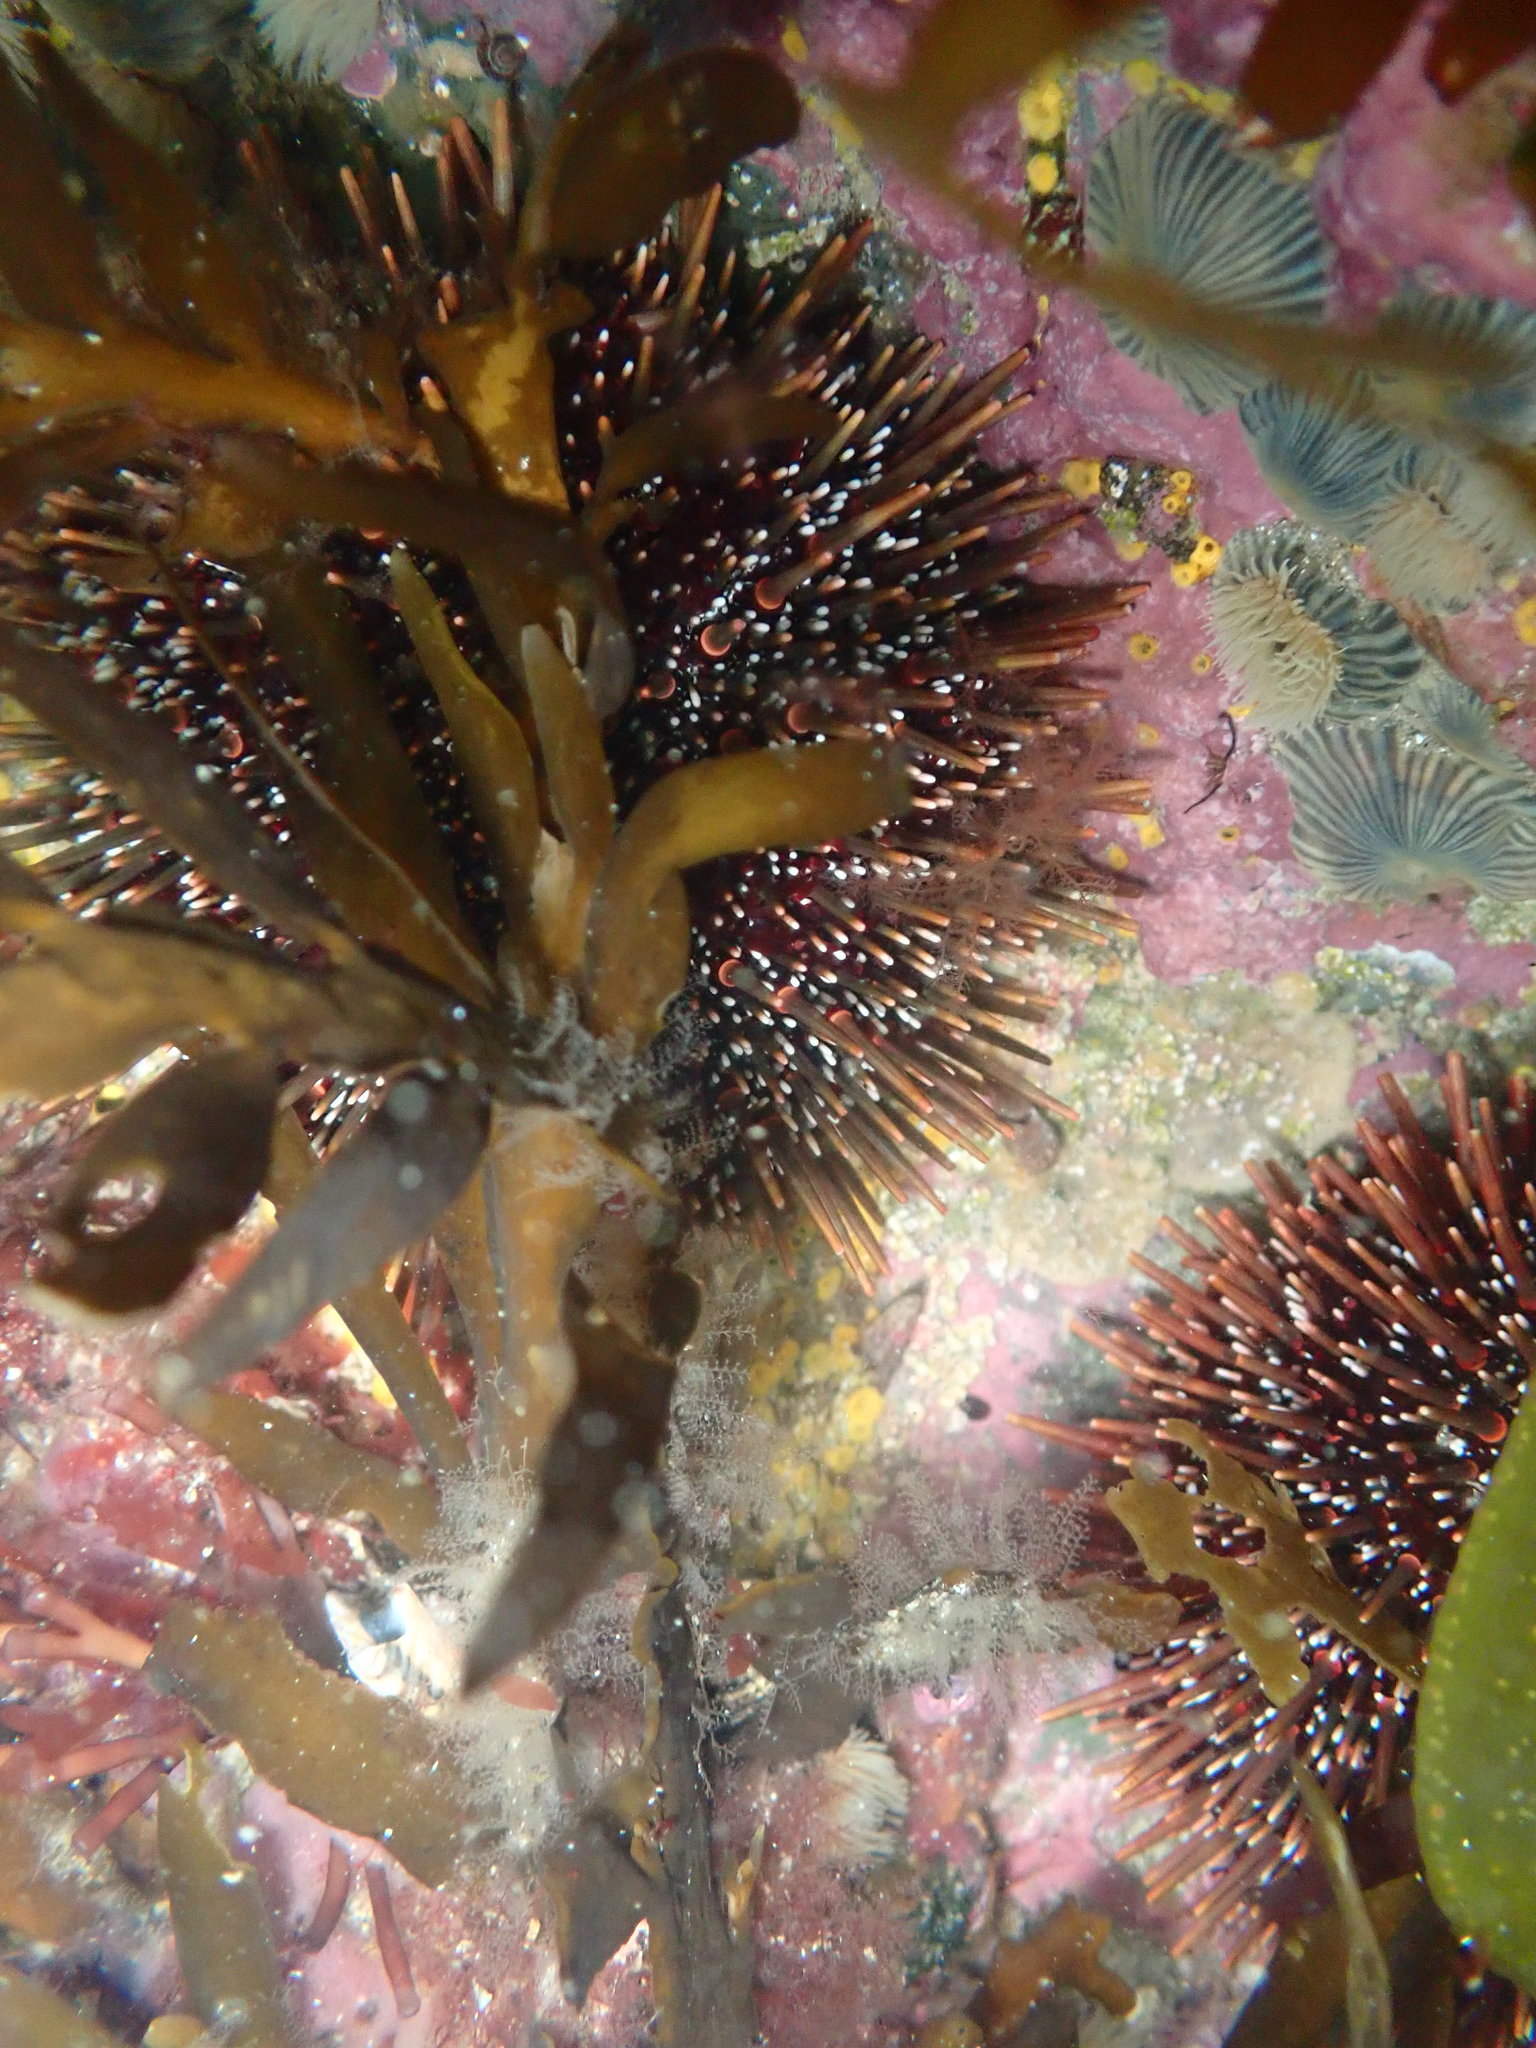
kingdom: Animalia
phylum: Echinodermata
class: Echinoidea
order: Camarodonta
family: Echinometridae
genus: Evechinus
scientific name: Evechinus chloroticus
